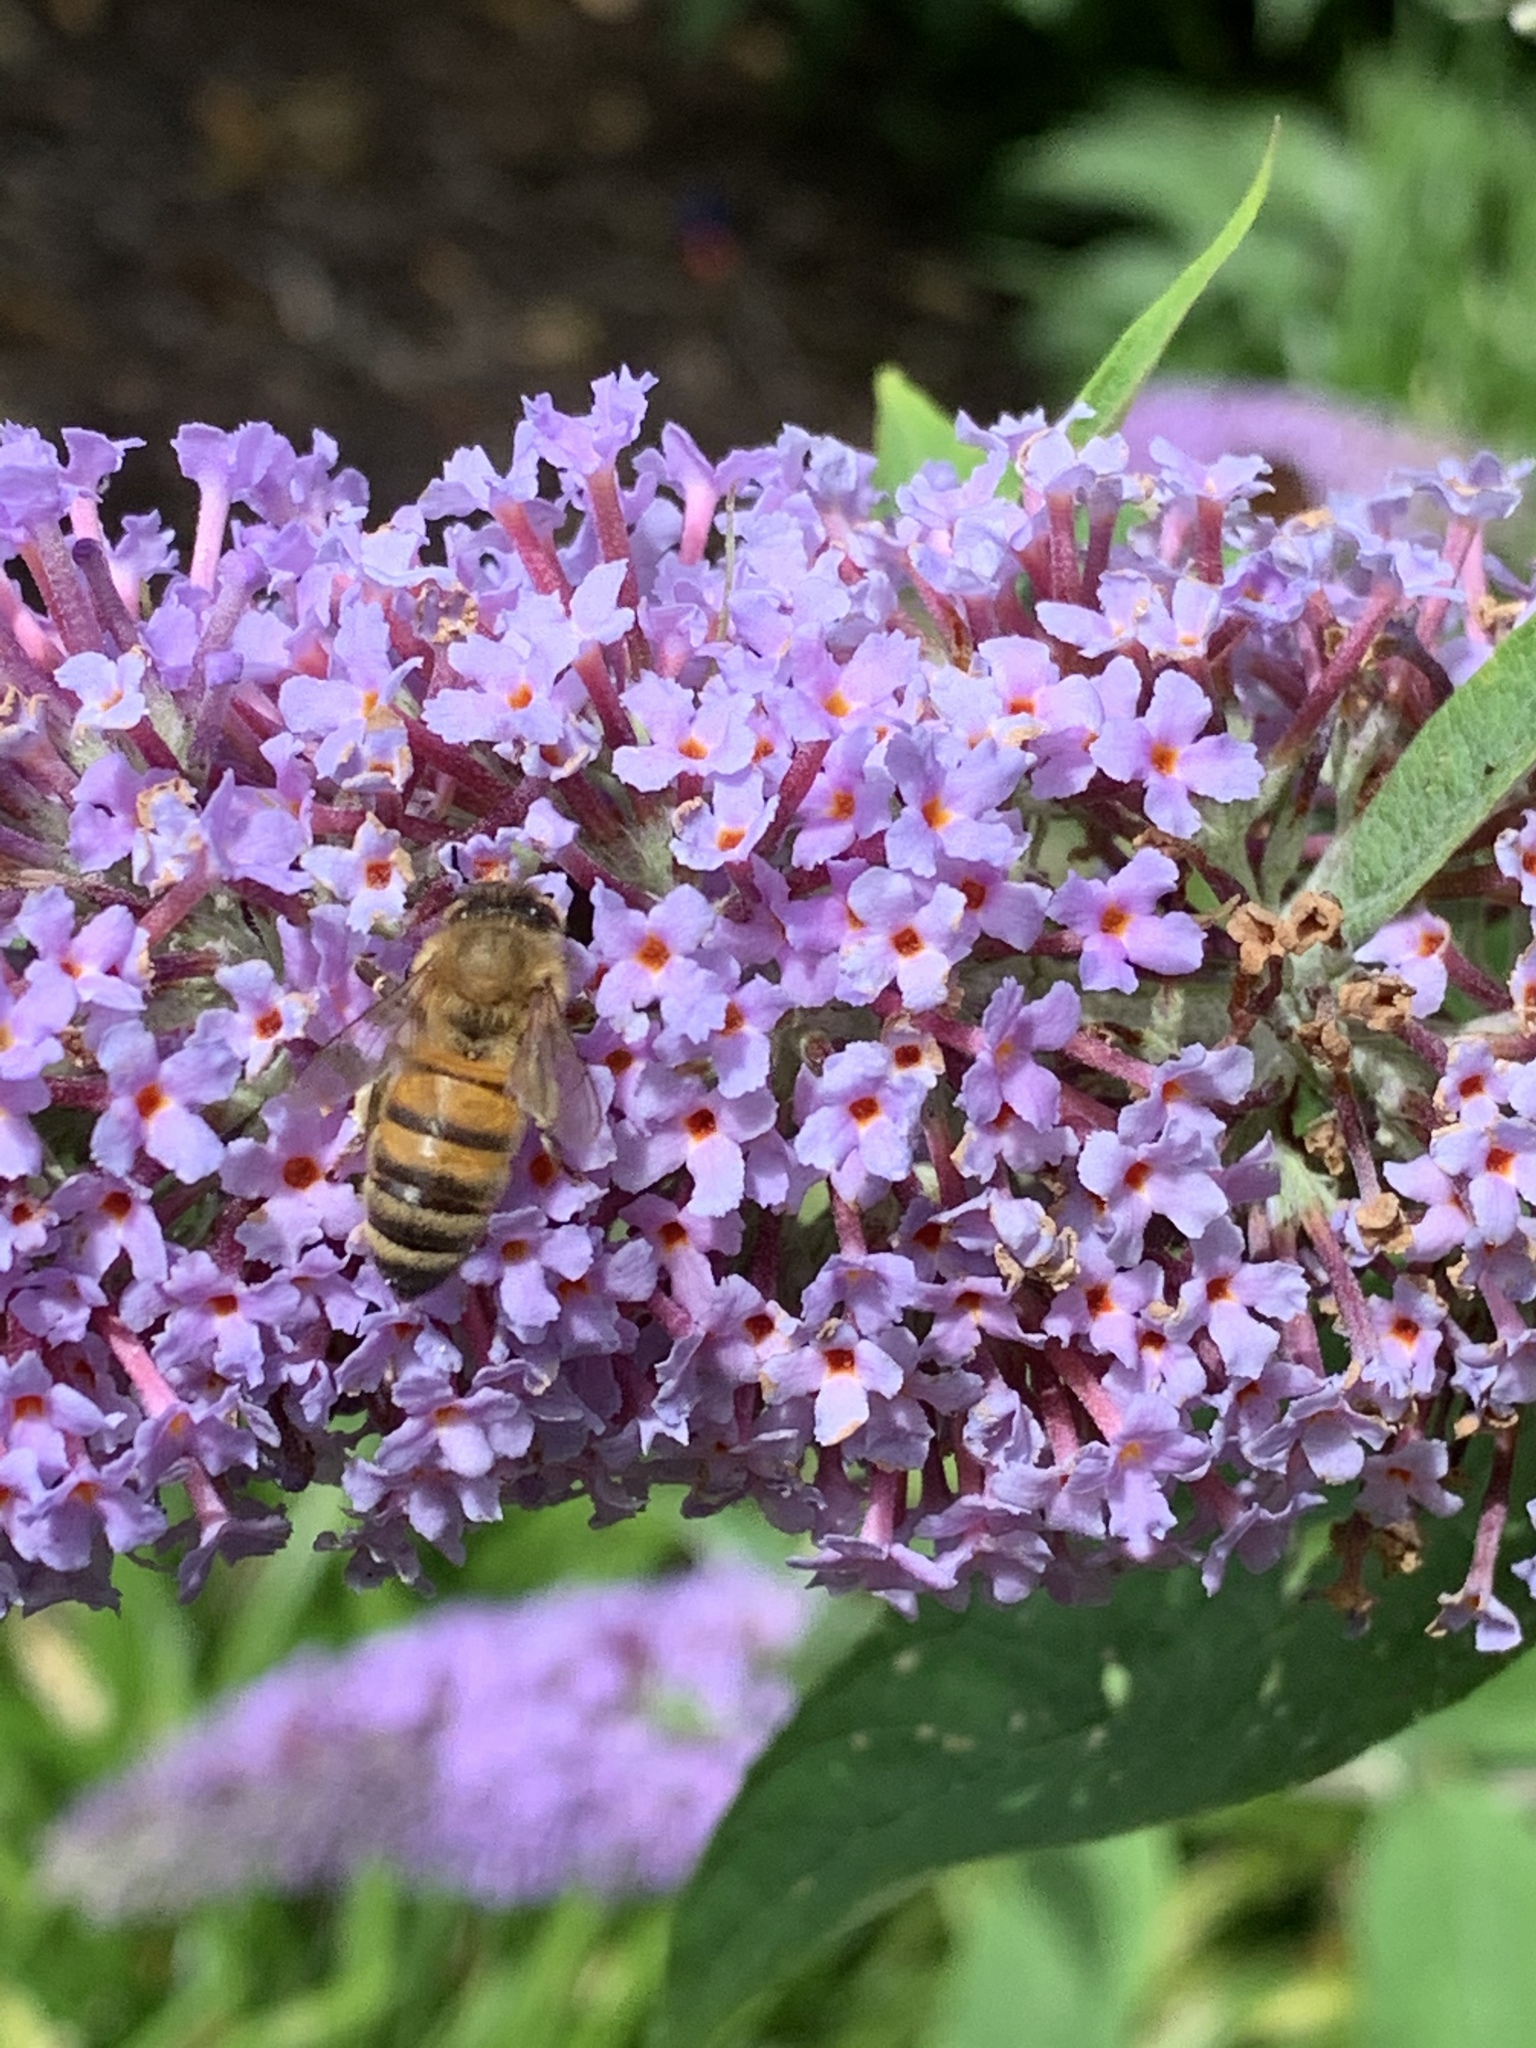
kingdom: Animalia
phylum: Arthropoda
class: Insecta
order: Hymenoptera
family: Apidae
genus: Apis
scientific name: Apis mellifera
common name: Honey bee
